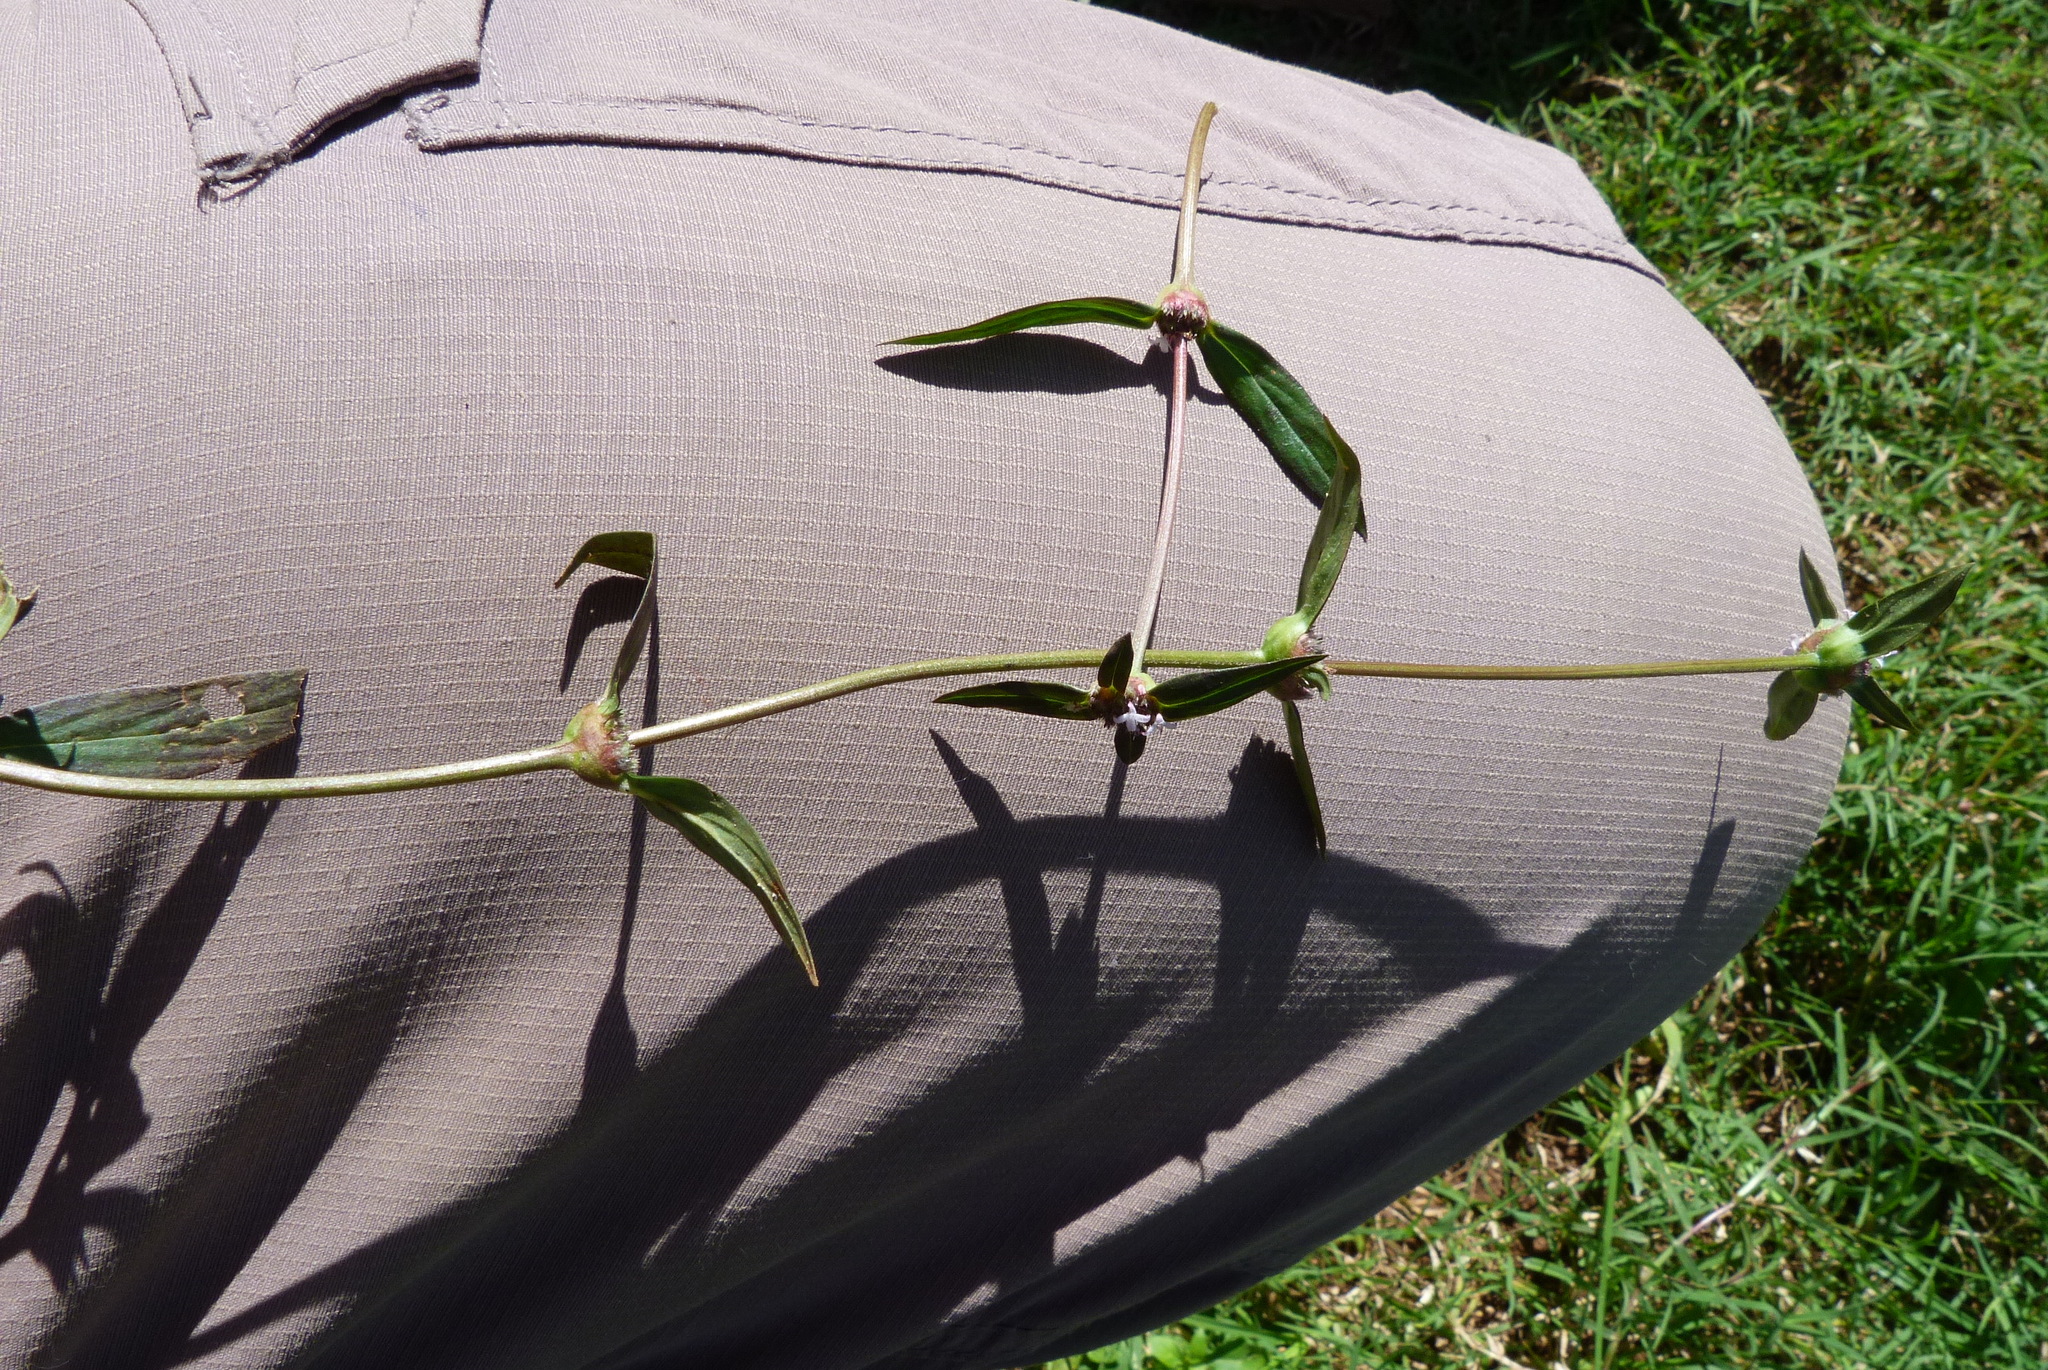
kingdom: Plantae
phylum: Tracheophyta
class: Magnoliopsida
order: Caryophyllales
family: Amaranthaceae
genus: Alternanthera
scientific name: Alternanthera sessilis
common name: Sessile joyweed
